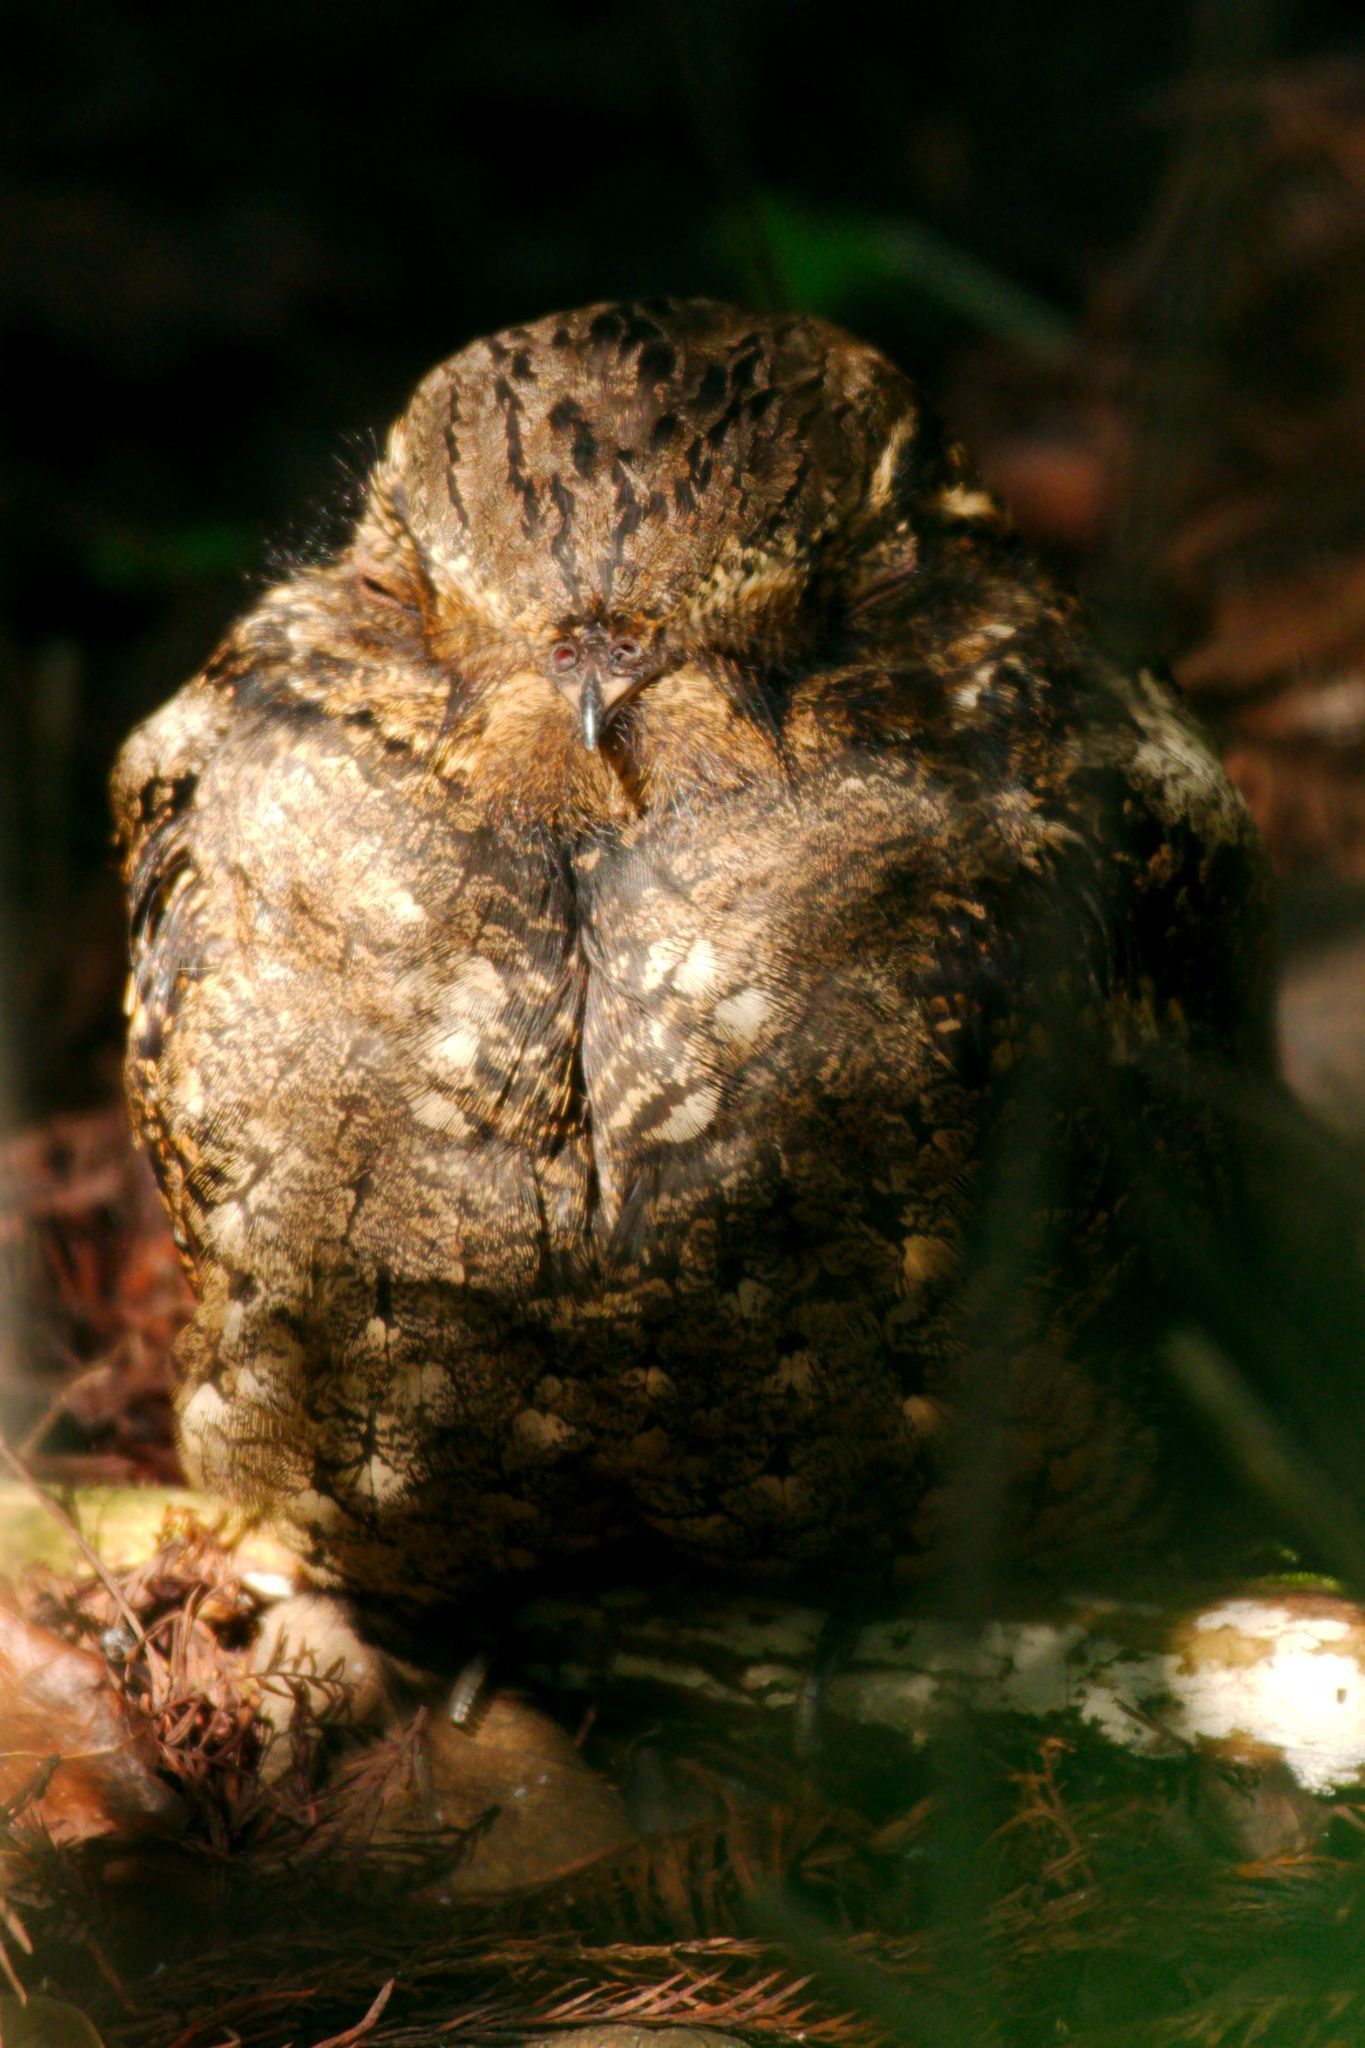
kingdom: Animalia
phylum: Chordata
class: Aves
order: Caprimulgiformes
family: Caprimulgidae
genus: Antrostomus
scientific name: Antrostomus carolinensis
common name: Chuck-will's-widow
